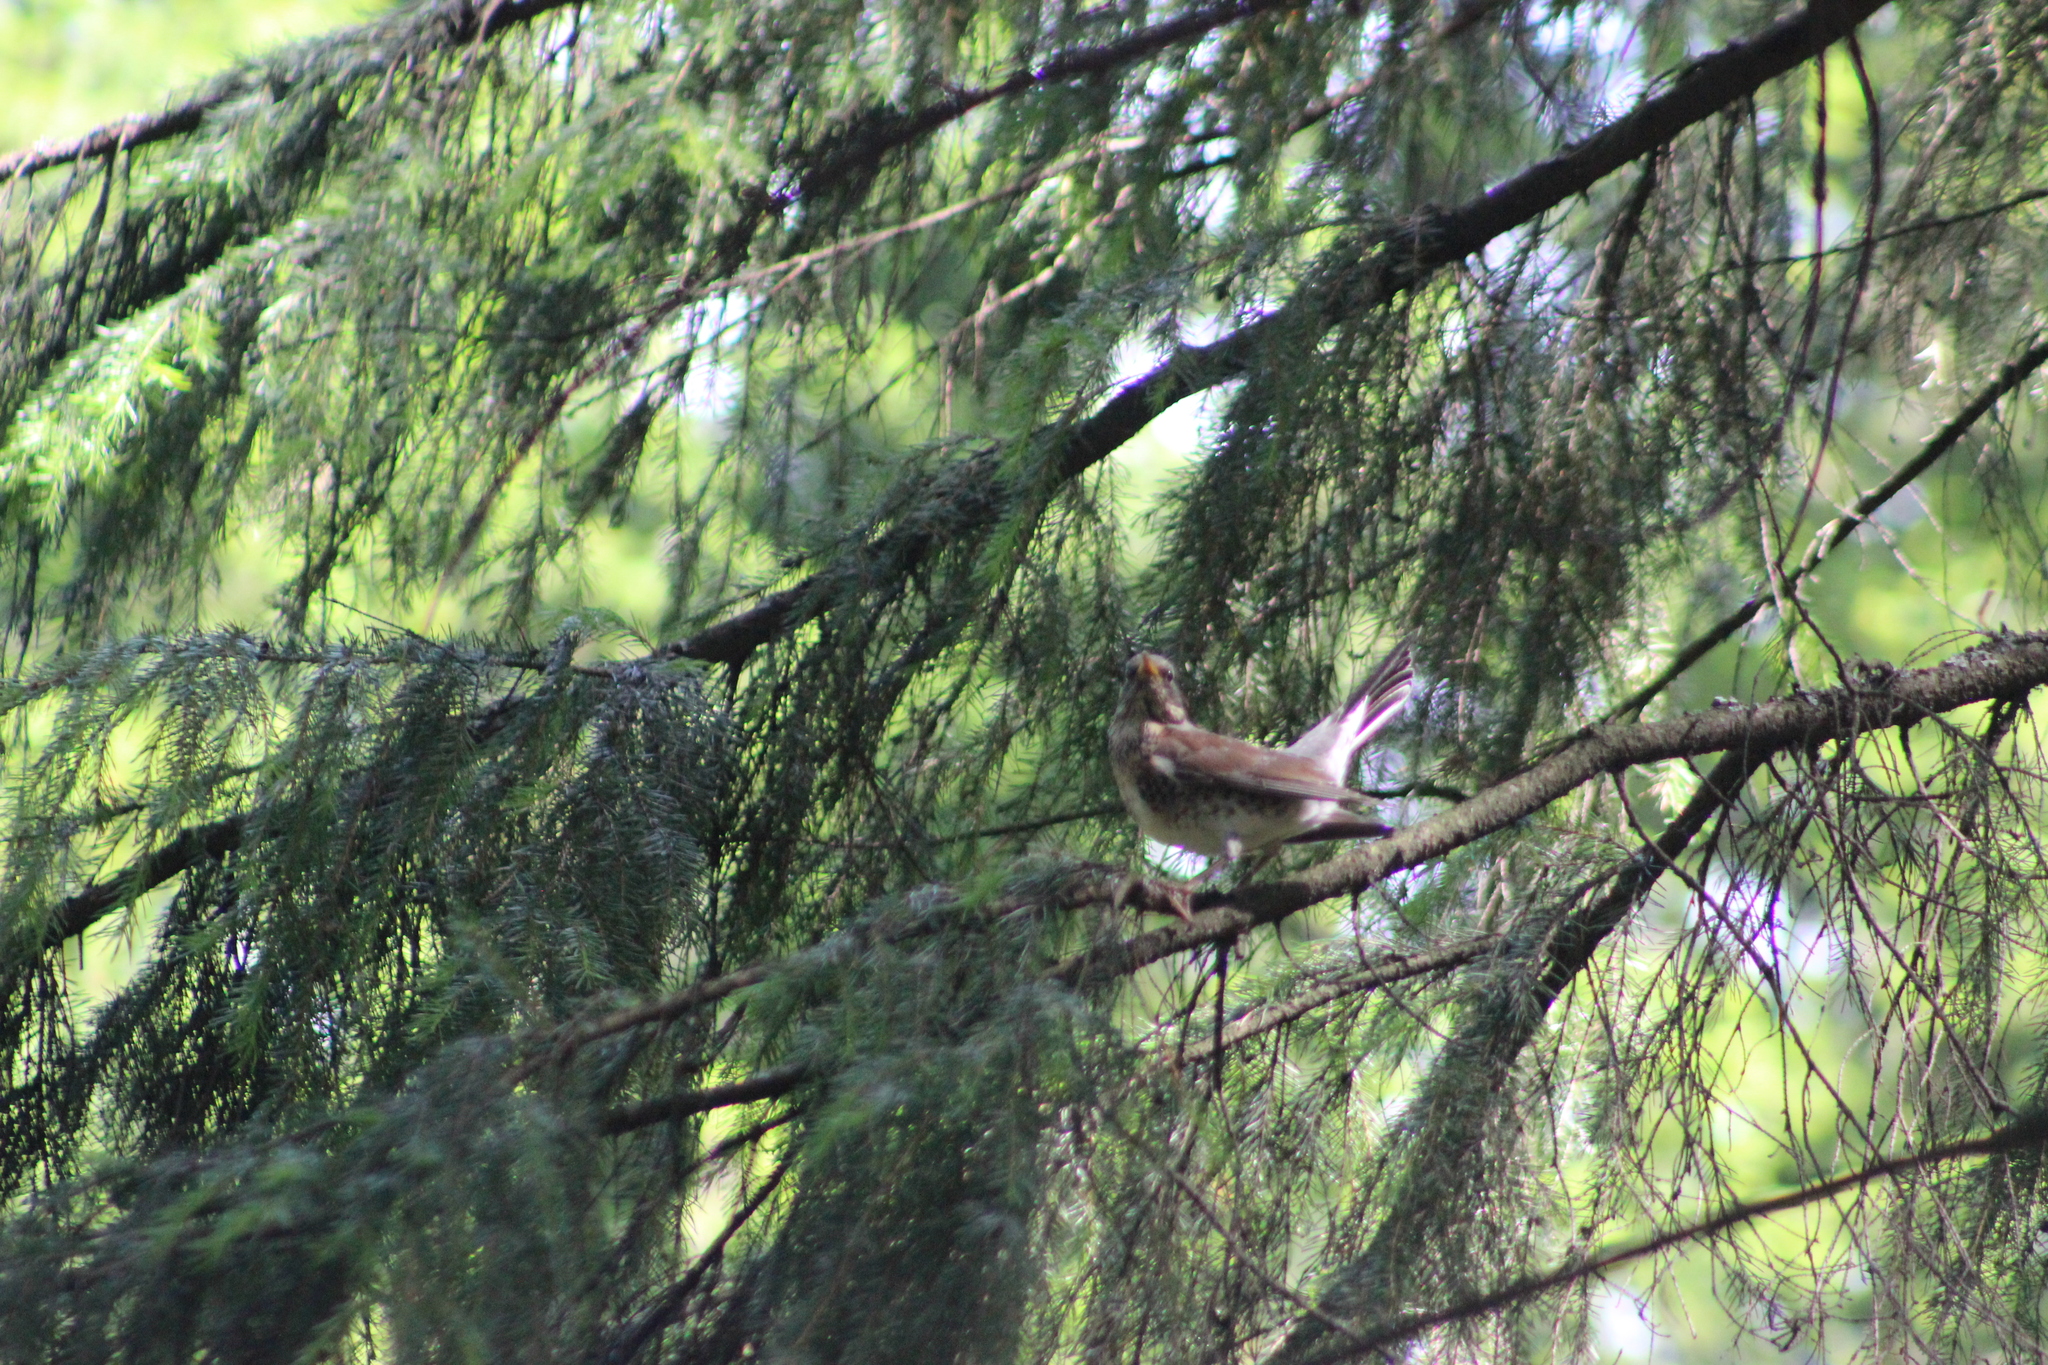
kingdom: Animalia
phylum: Chordata
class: Aves
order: Passeriformes
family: Turdidae
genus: Turdus
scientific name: Turdus pilaris
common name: Fieldfare
